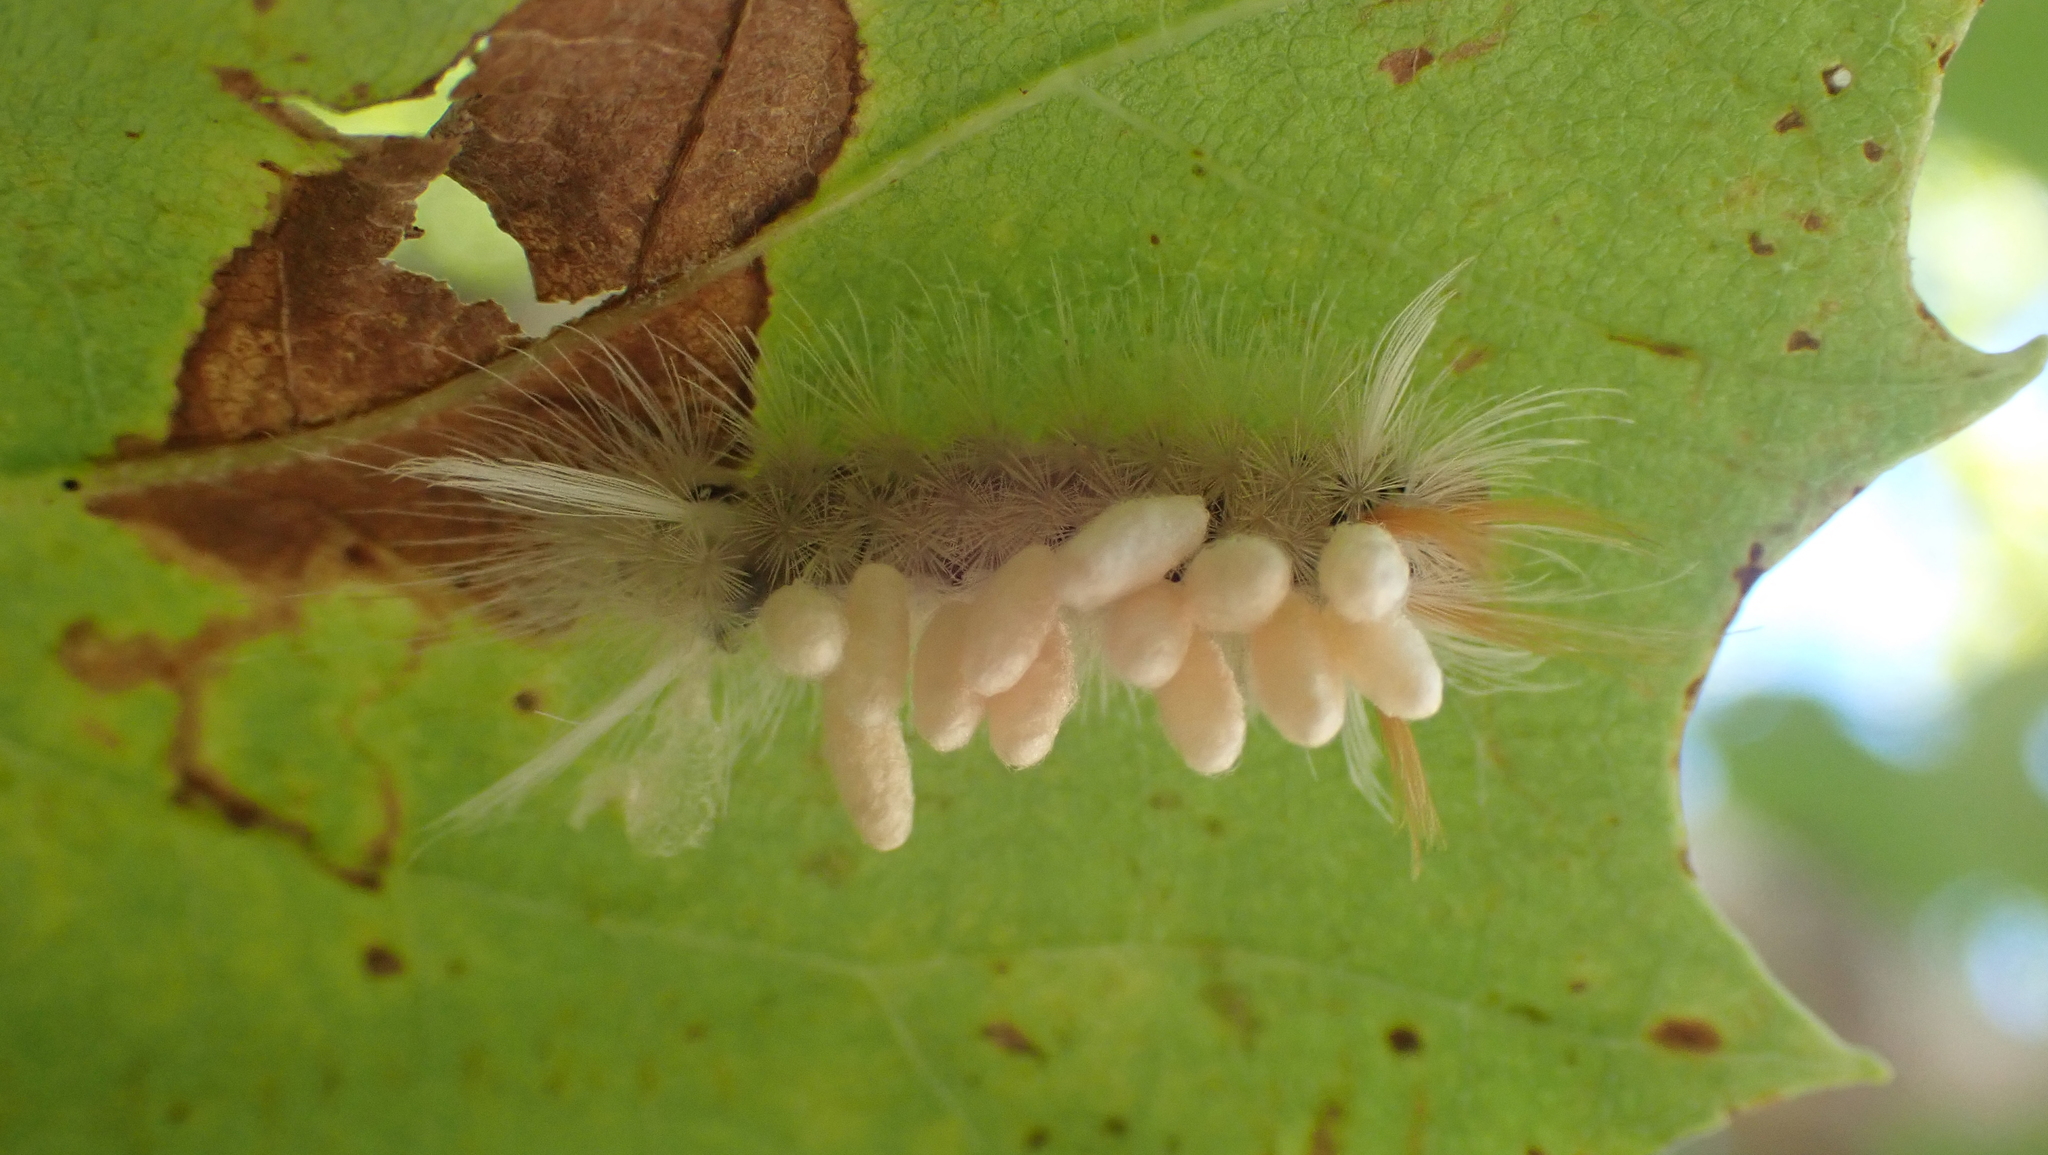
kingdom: Animalia
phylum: Arthropoda
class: Insecta
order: Lepidoptera
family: Erebidae
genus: Halysidota
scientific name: Halysidota harrisii
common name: Sycamore tussock moth
